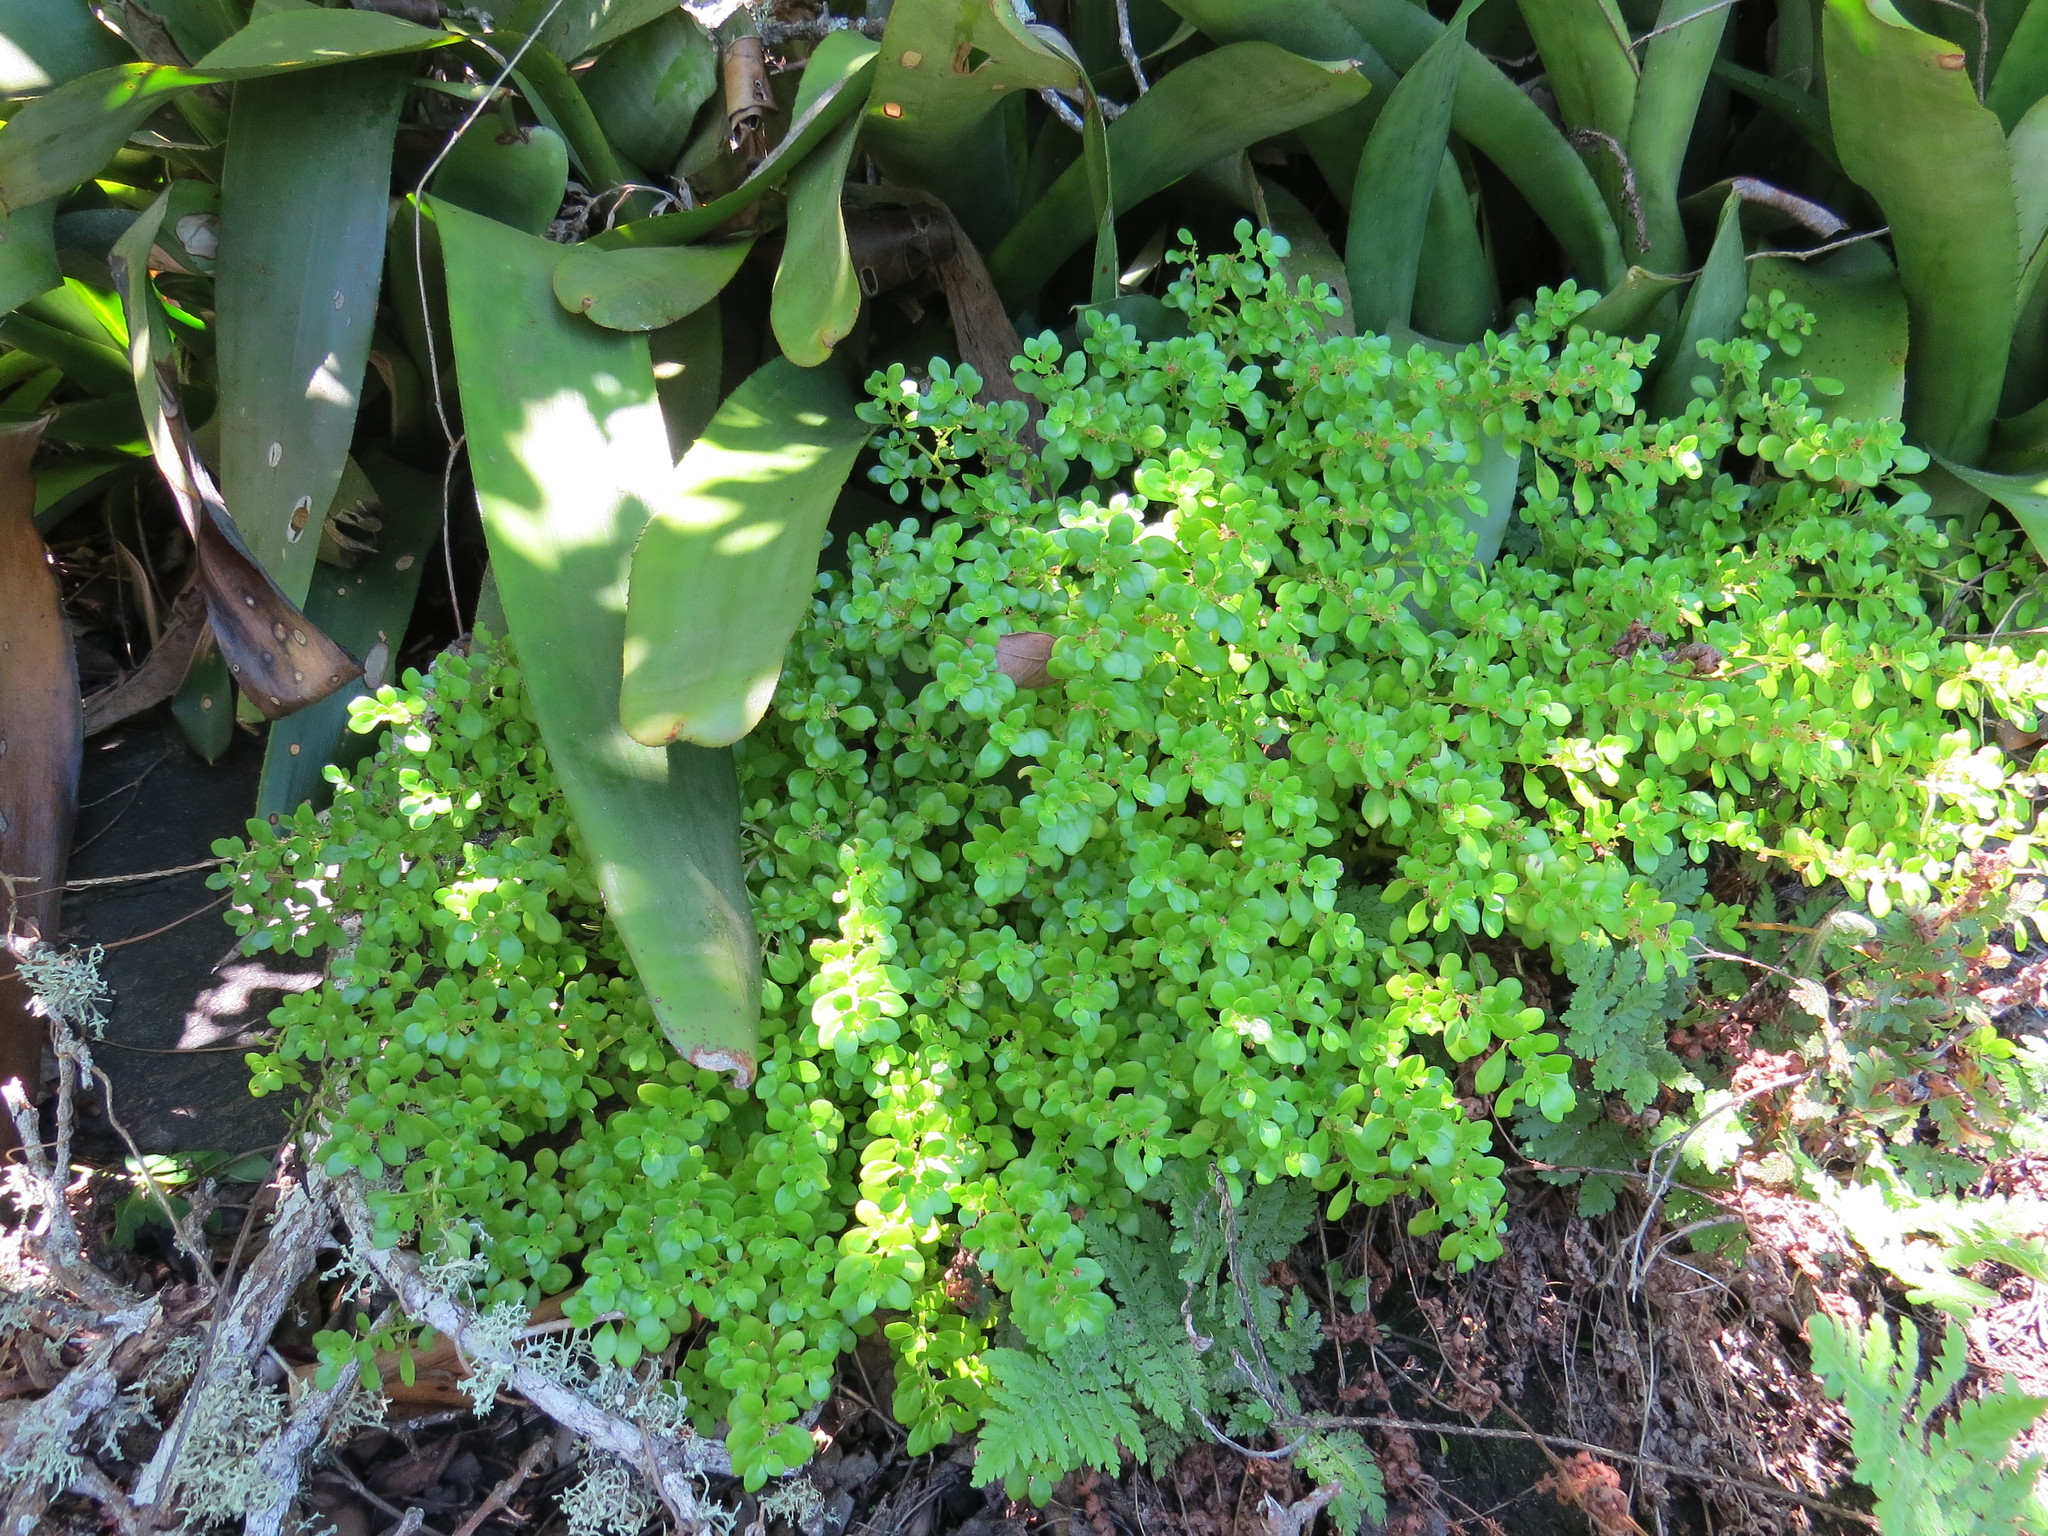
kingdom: Plantae
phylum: Tracheophyta
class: Magnoliopsida
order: Rosales
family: Urticaceae
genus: Pilea
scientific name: Pilea carautae
